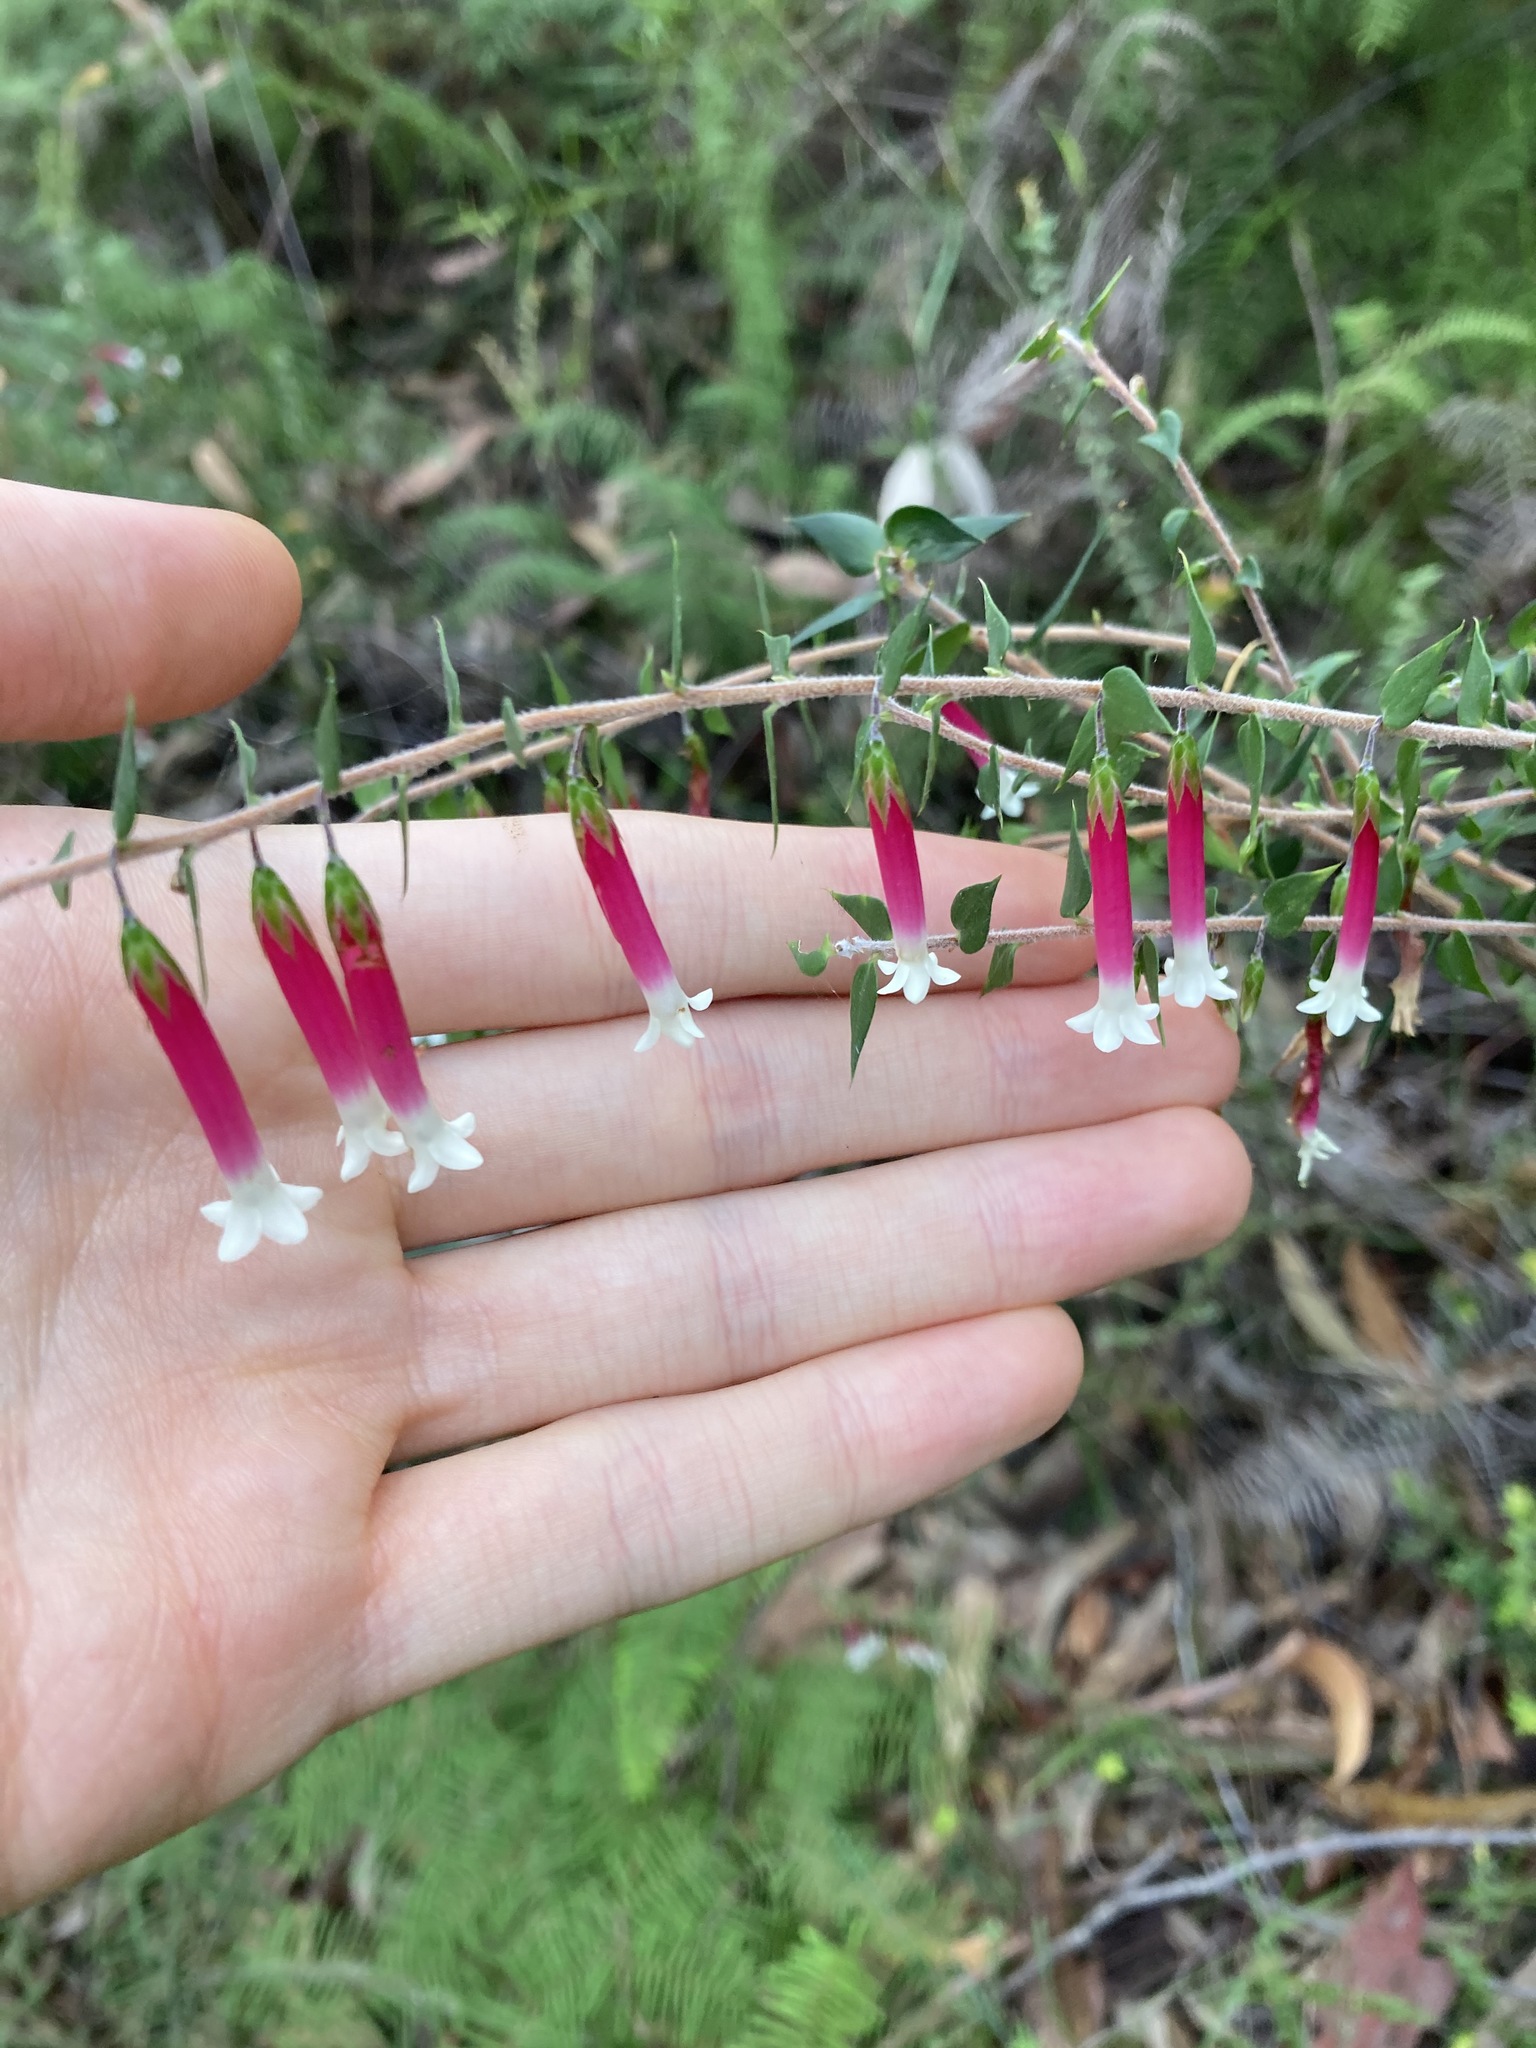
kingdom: Plantae
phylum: Tracheophyta
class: Magnoliopsida
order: Ericales
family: Ericaceae
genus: Epacris
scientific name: Epacris longiflora
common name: Fuchsia-heath
